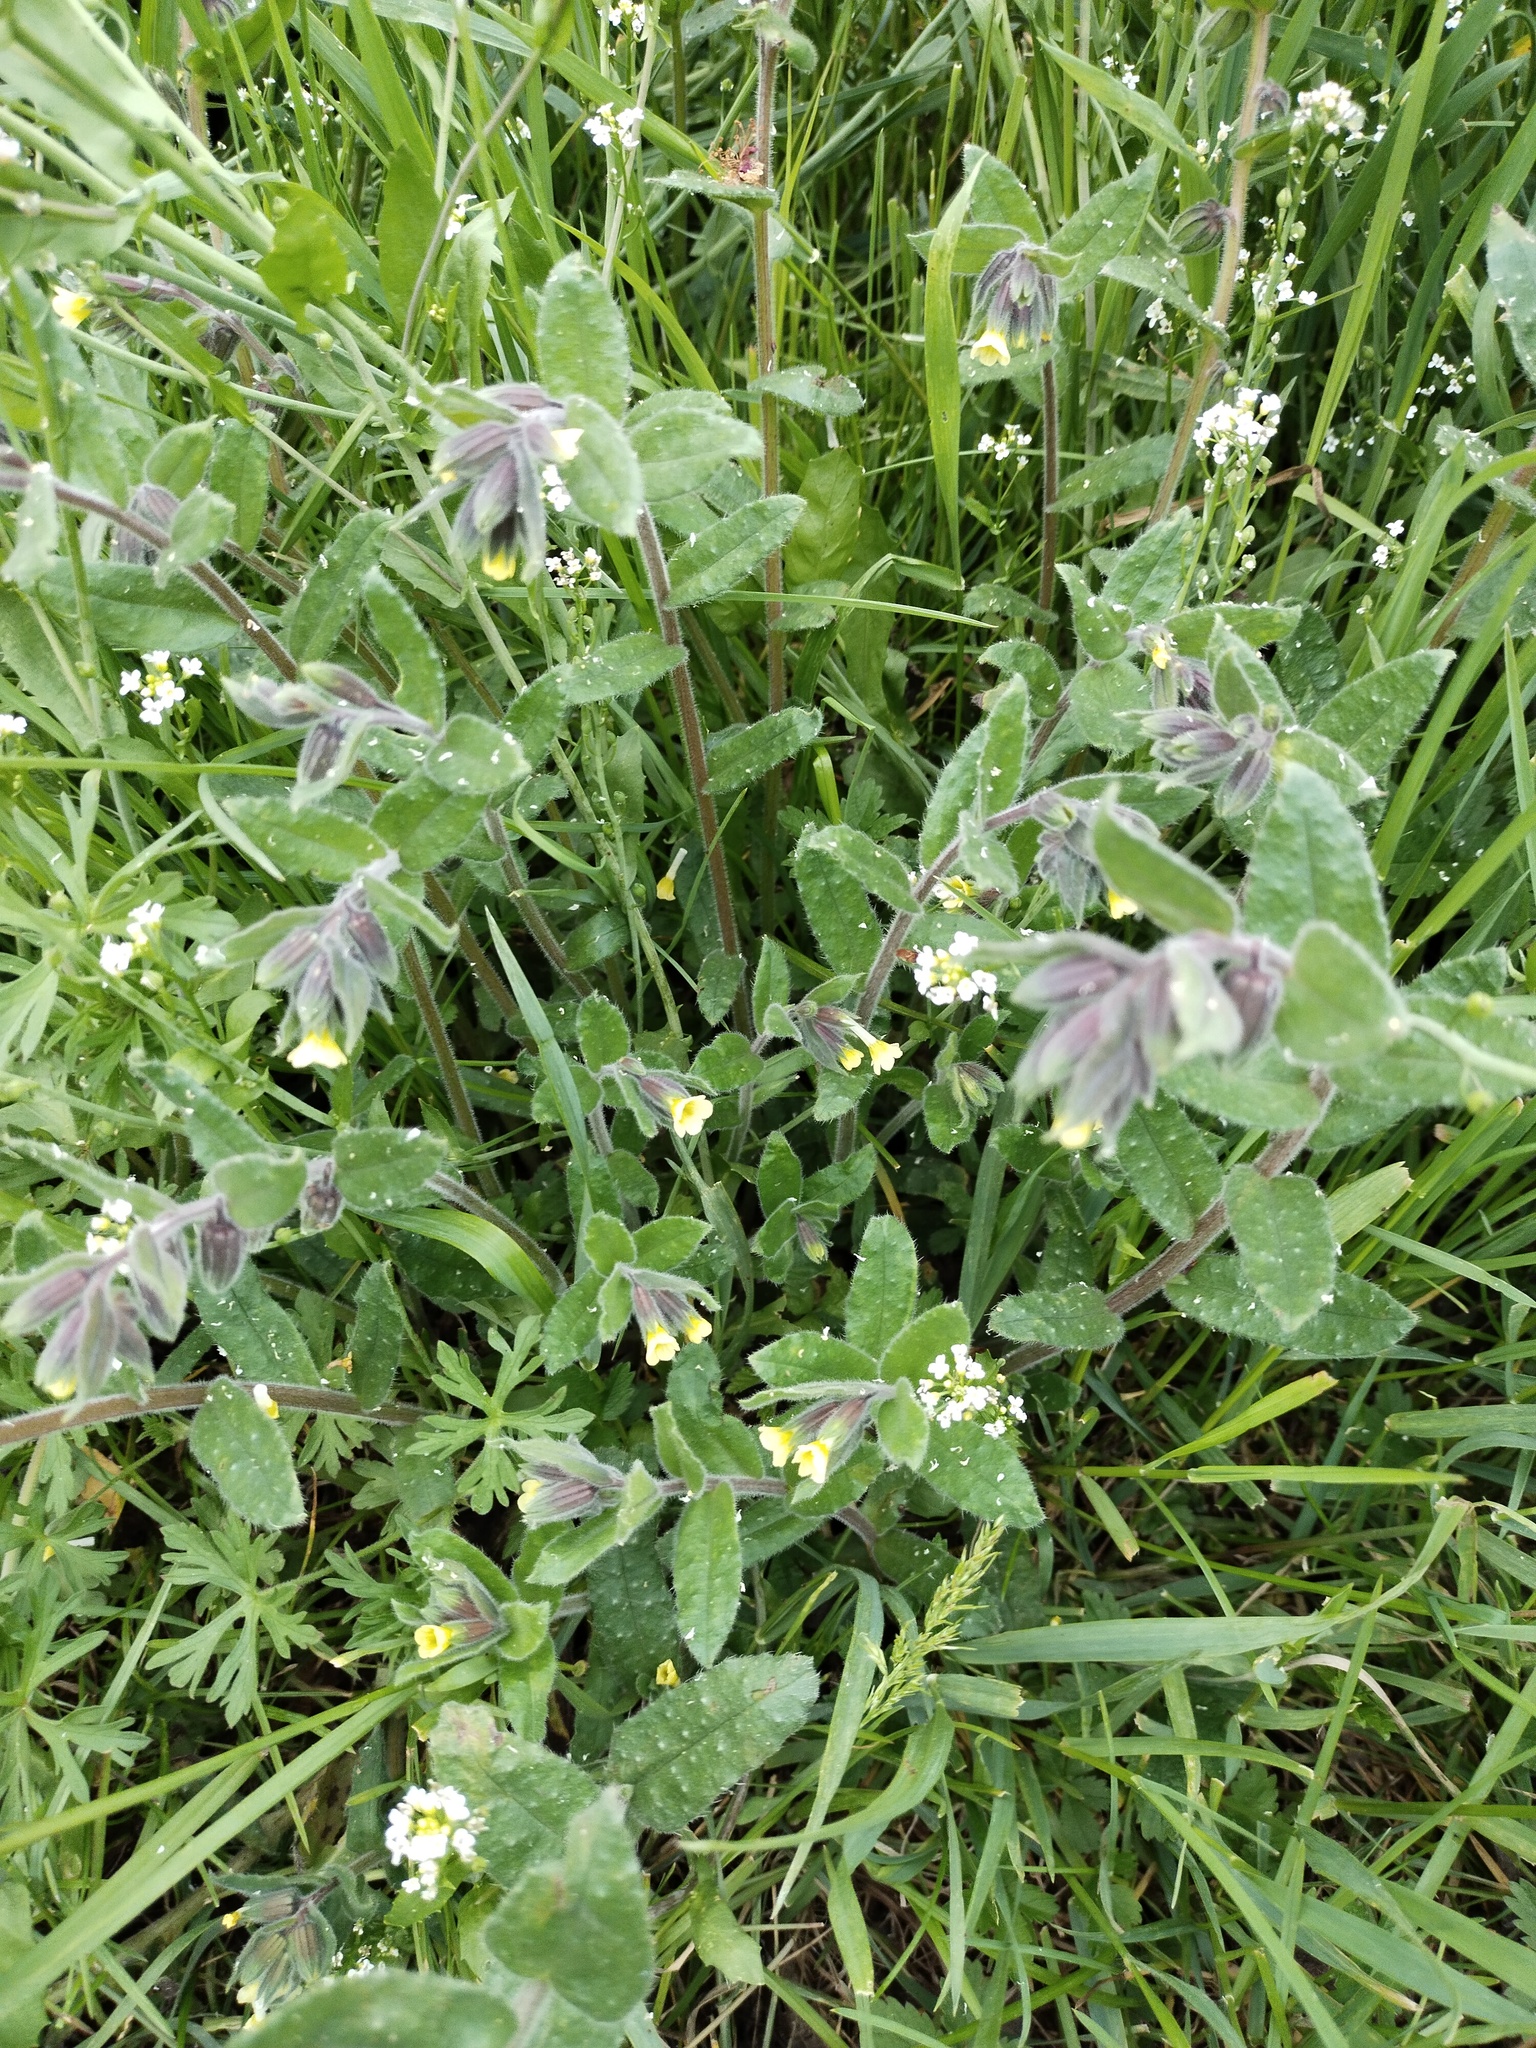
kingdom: Plantae
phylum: Tracheophyta
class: Magnoliopsida
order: Boraginales
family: Boraginaceae
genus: Nonea
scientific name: Nonea lutea
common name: Yellow nonea
